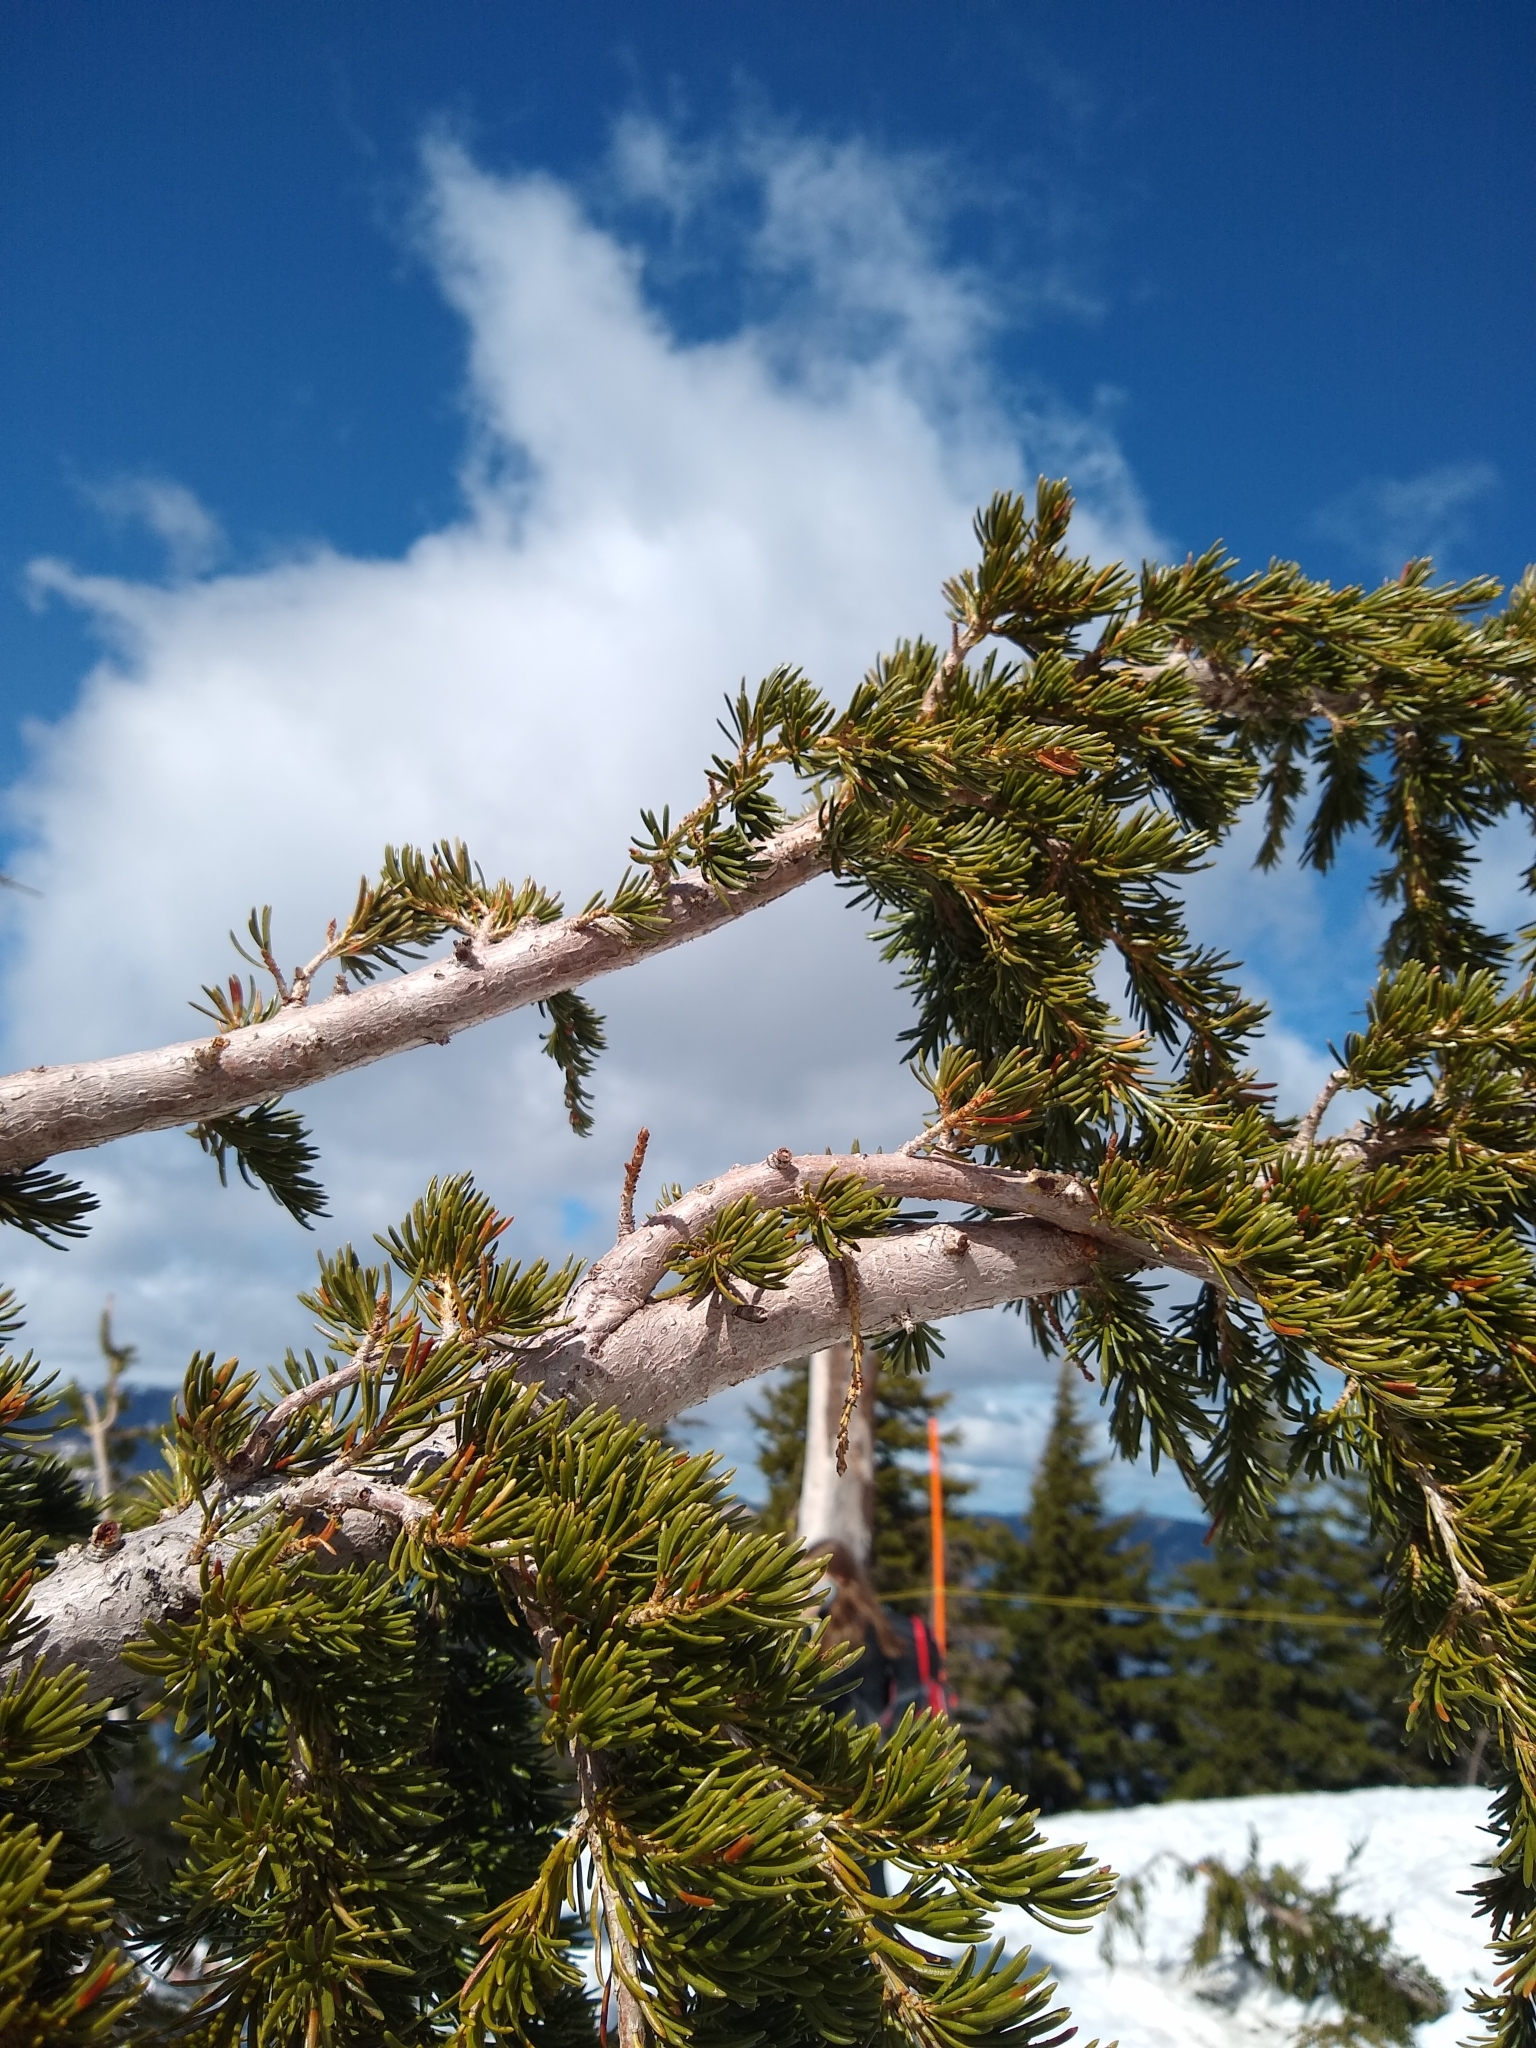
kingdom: Plantae
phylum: Tracheophyta
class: Pinopsida
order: Pinales
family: Pinaceae
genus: Tsuga
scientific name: Tsuga mertensiana
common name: Mountain hemlock
